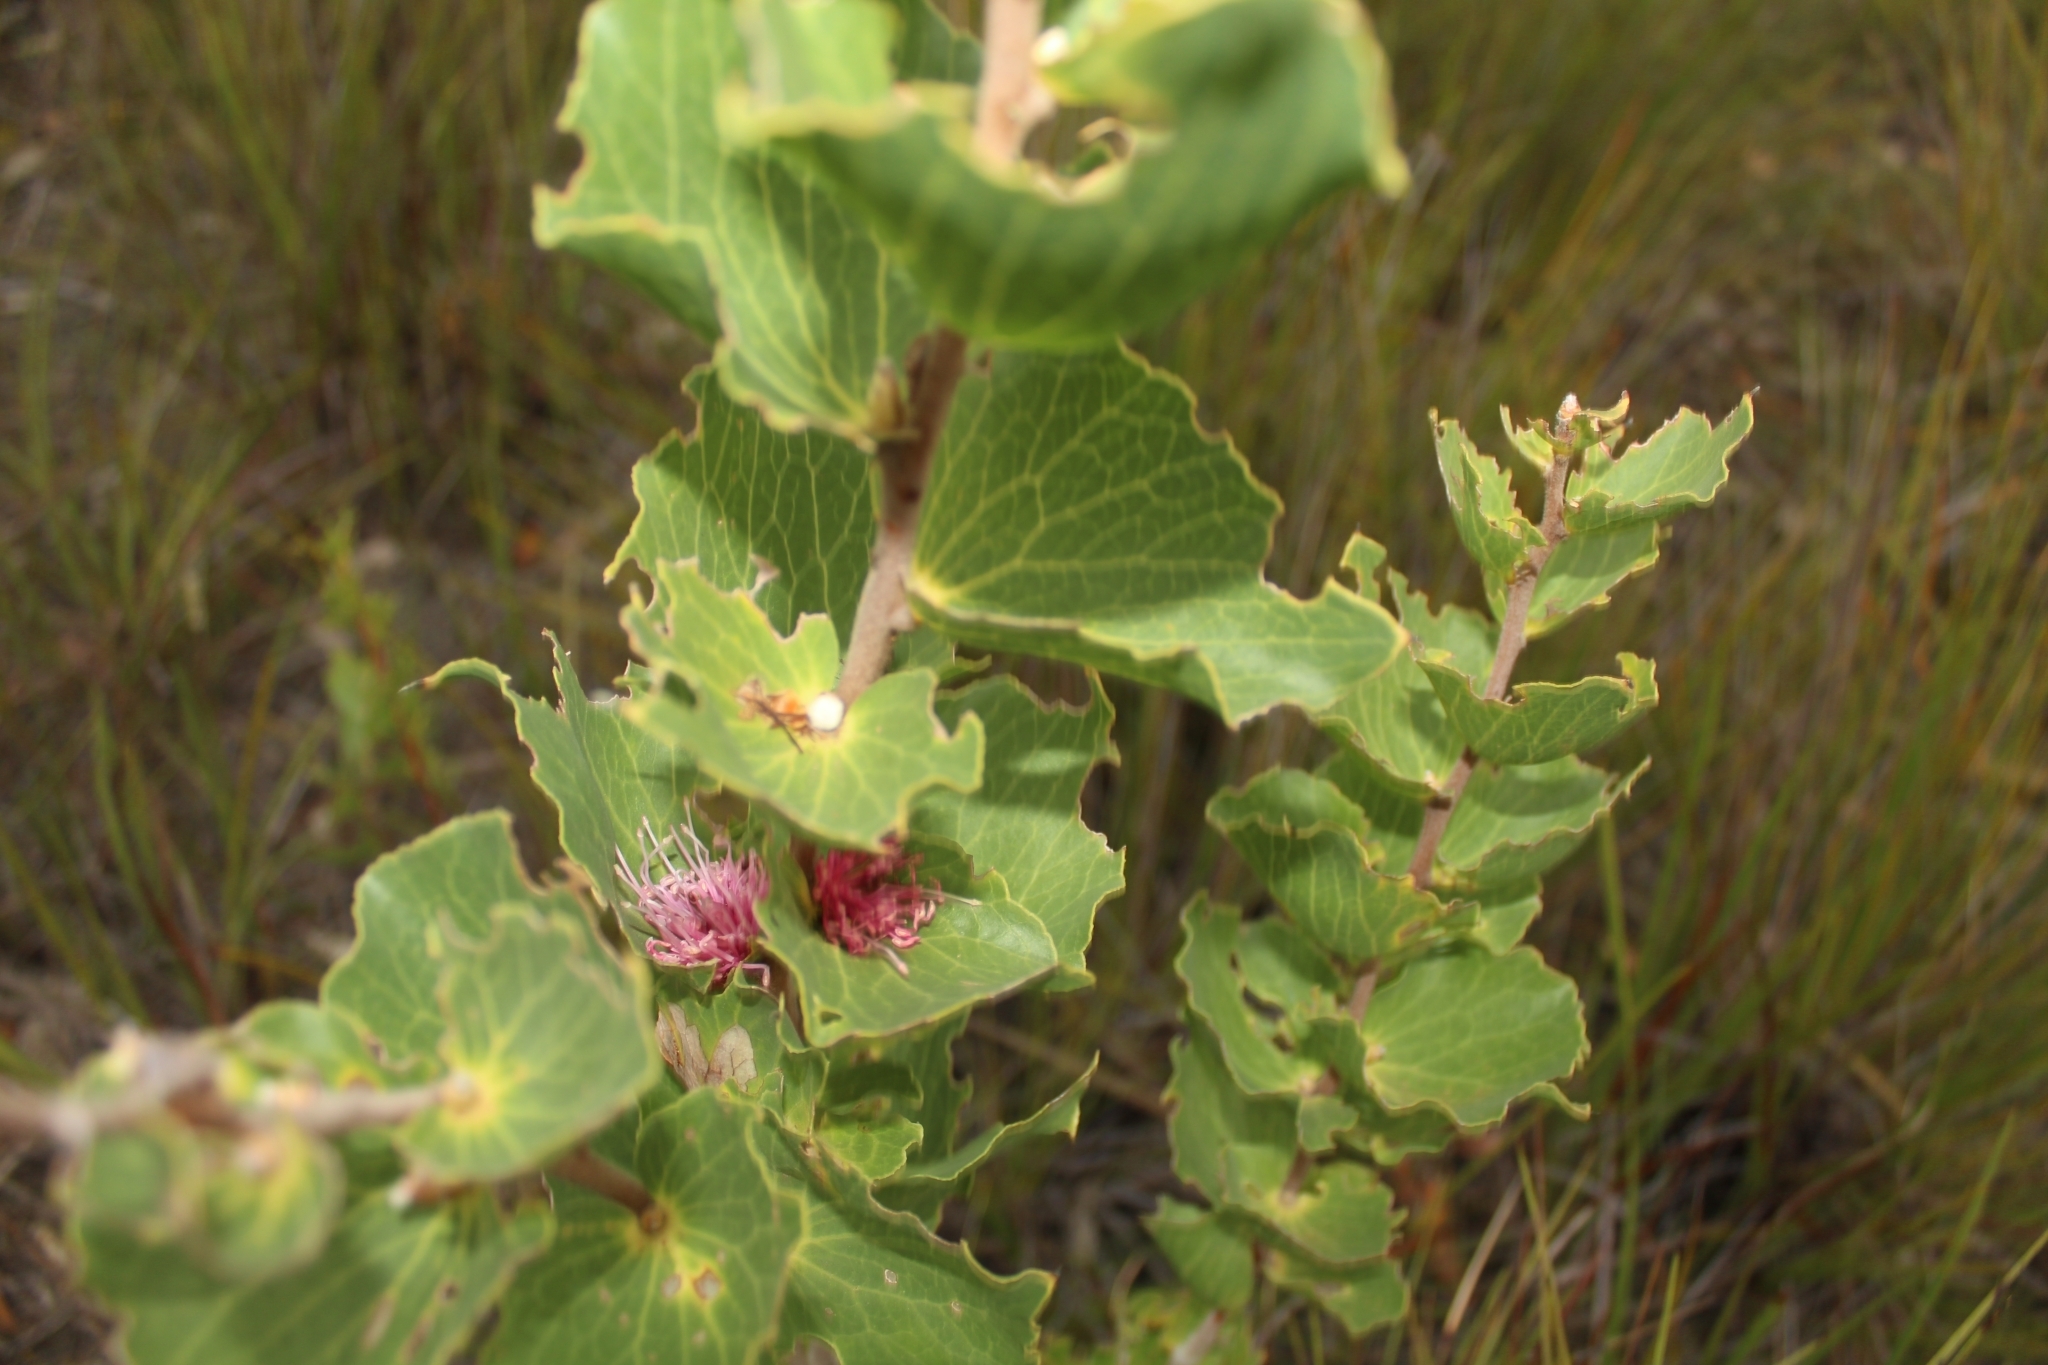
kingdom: Plantae
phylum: Tracheophyta
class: Magnoliopsida
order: Proteales
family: Proteaceae
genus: Hakea
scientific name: Hakea cucullata
